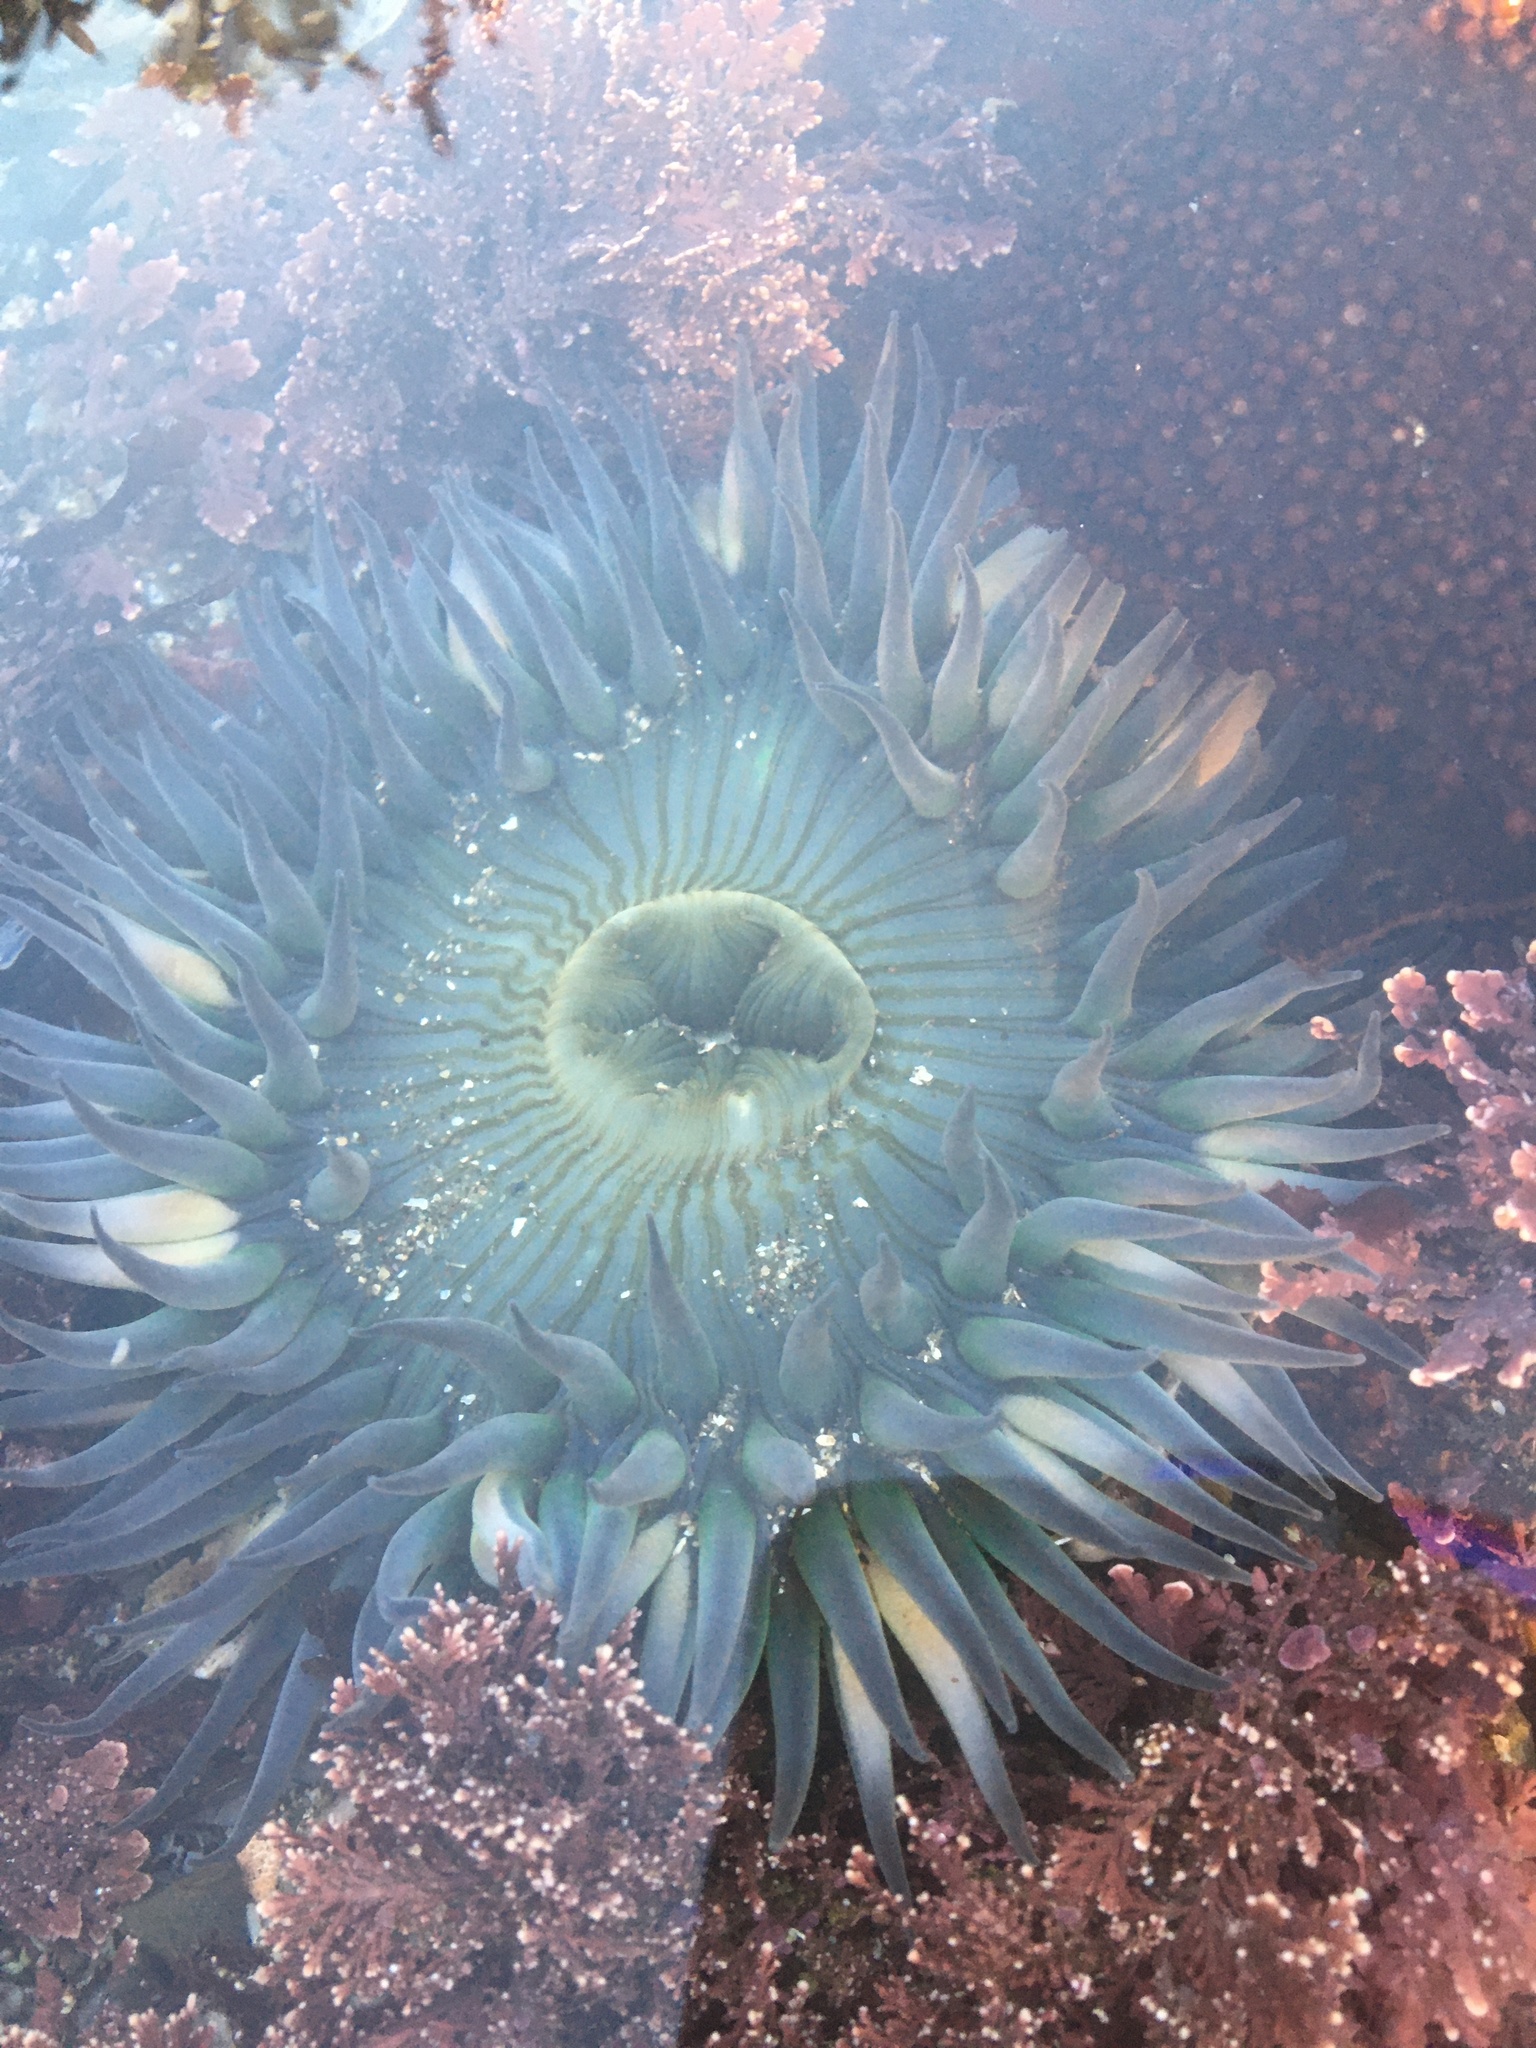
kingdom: Animalia
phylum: Cnidaria
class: Anthozoa
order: Actiniaria
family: Actiniidae
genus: Anthopleura
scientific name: Anthopleura sola
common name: Sun anemone
